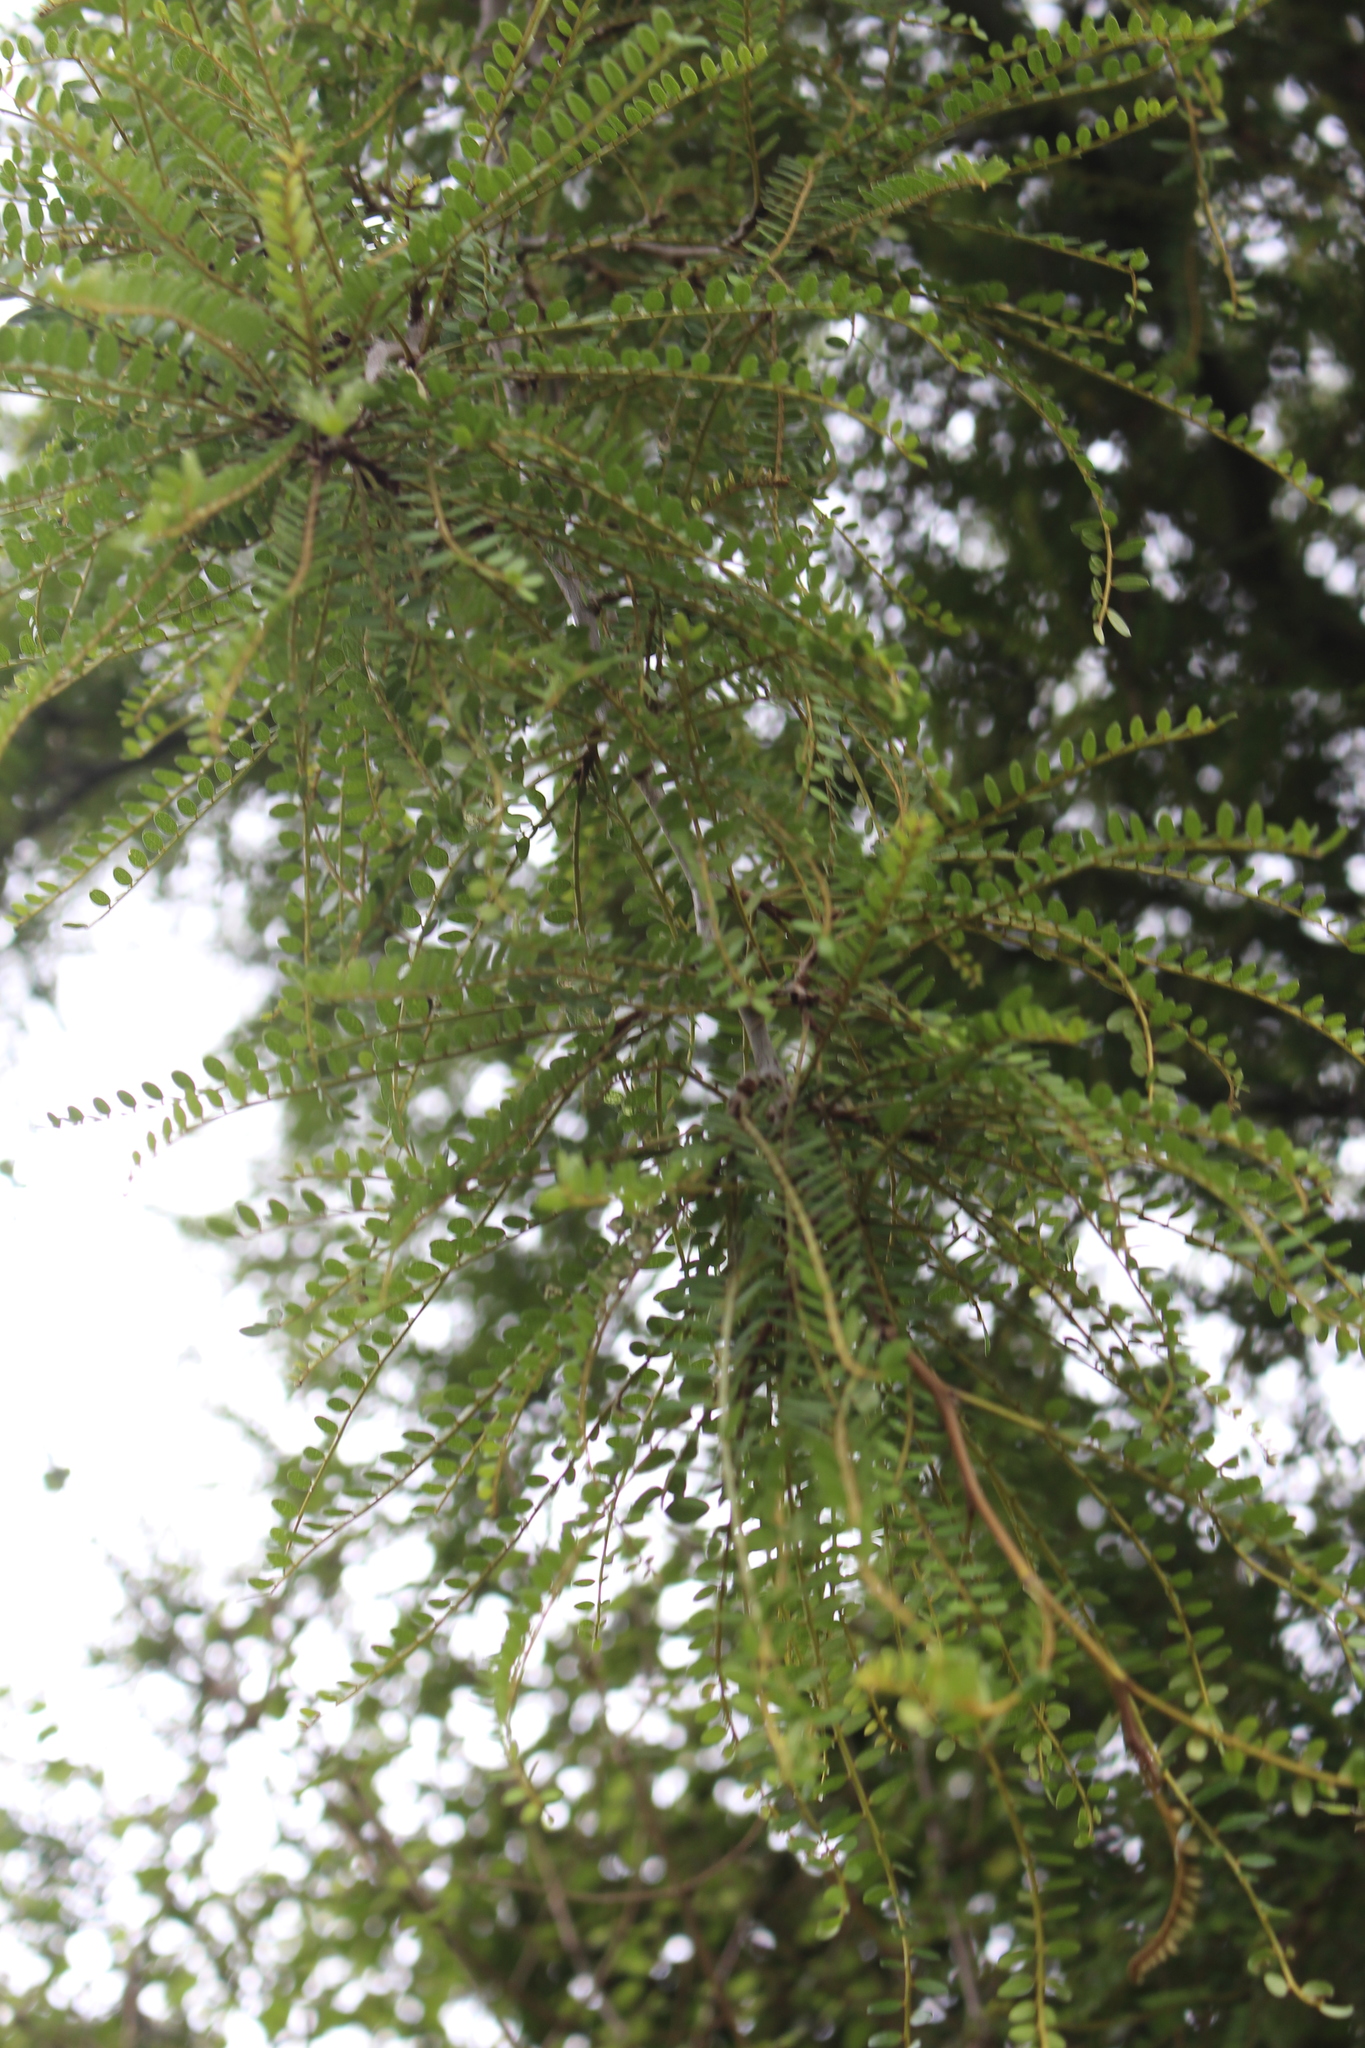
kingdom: Plantae
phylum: Tracheophyta
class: Magnoliopsida
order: Fabales
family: Fabaceae
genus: Sophora
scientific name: Sophora microphylla
